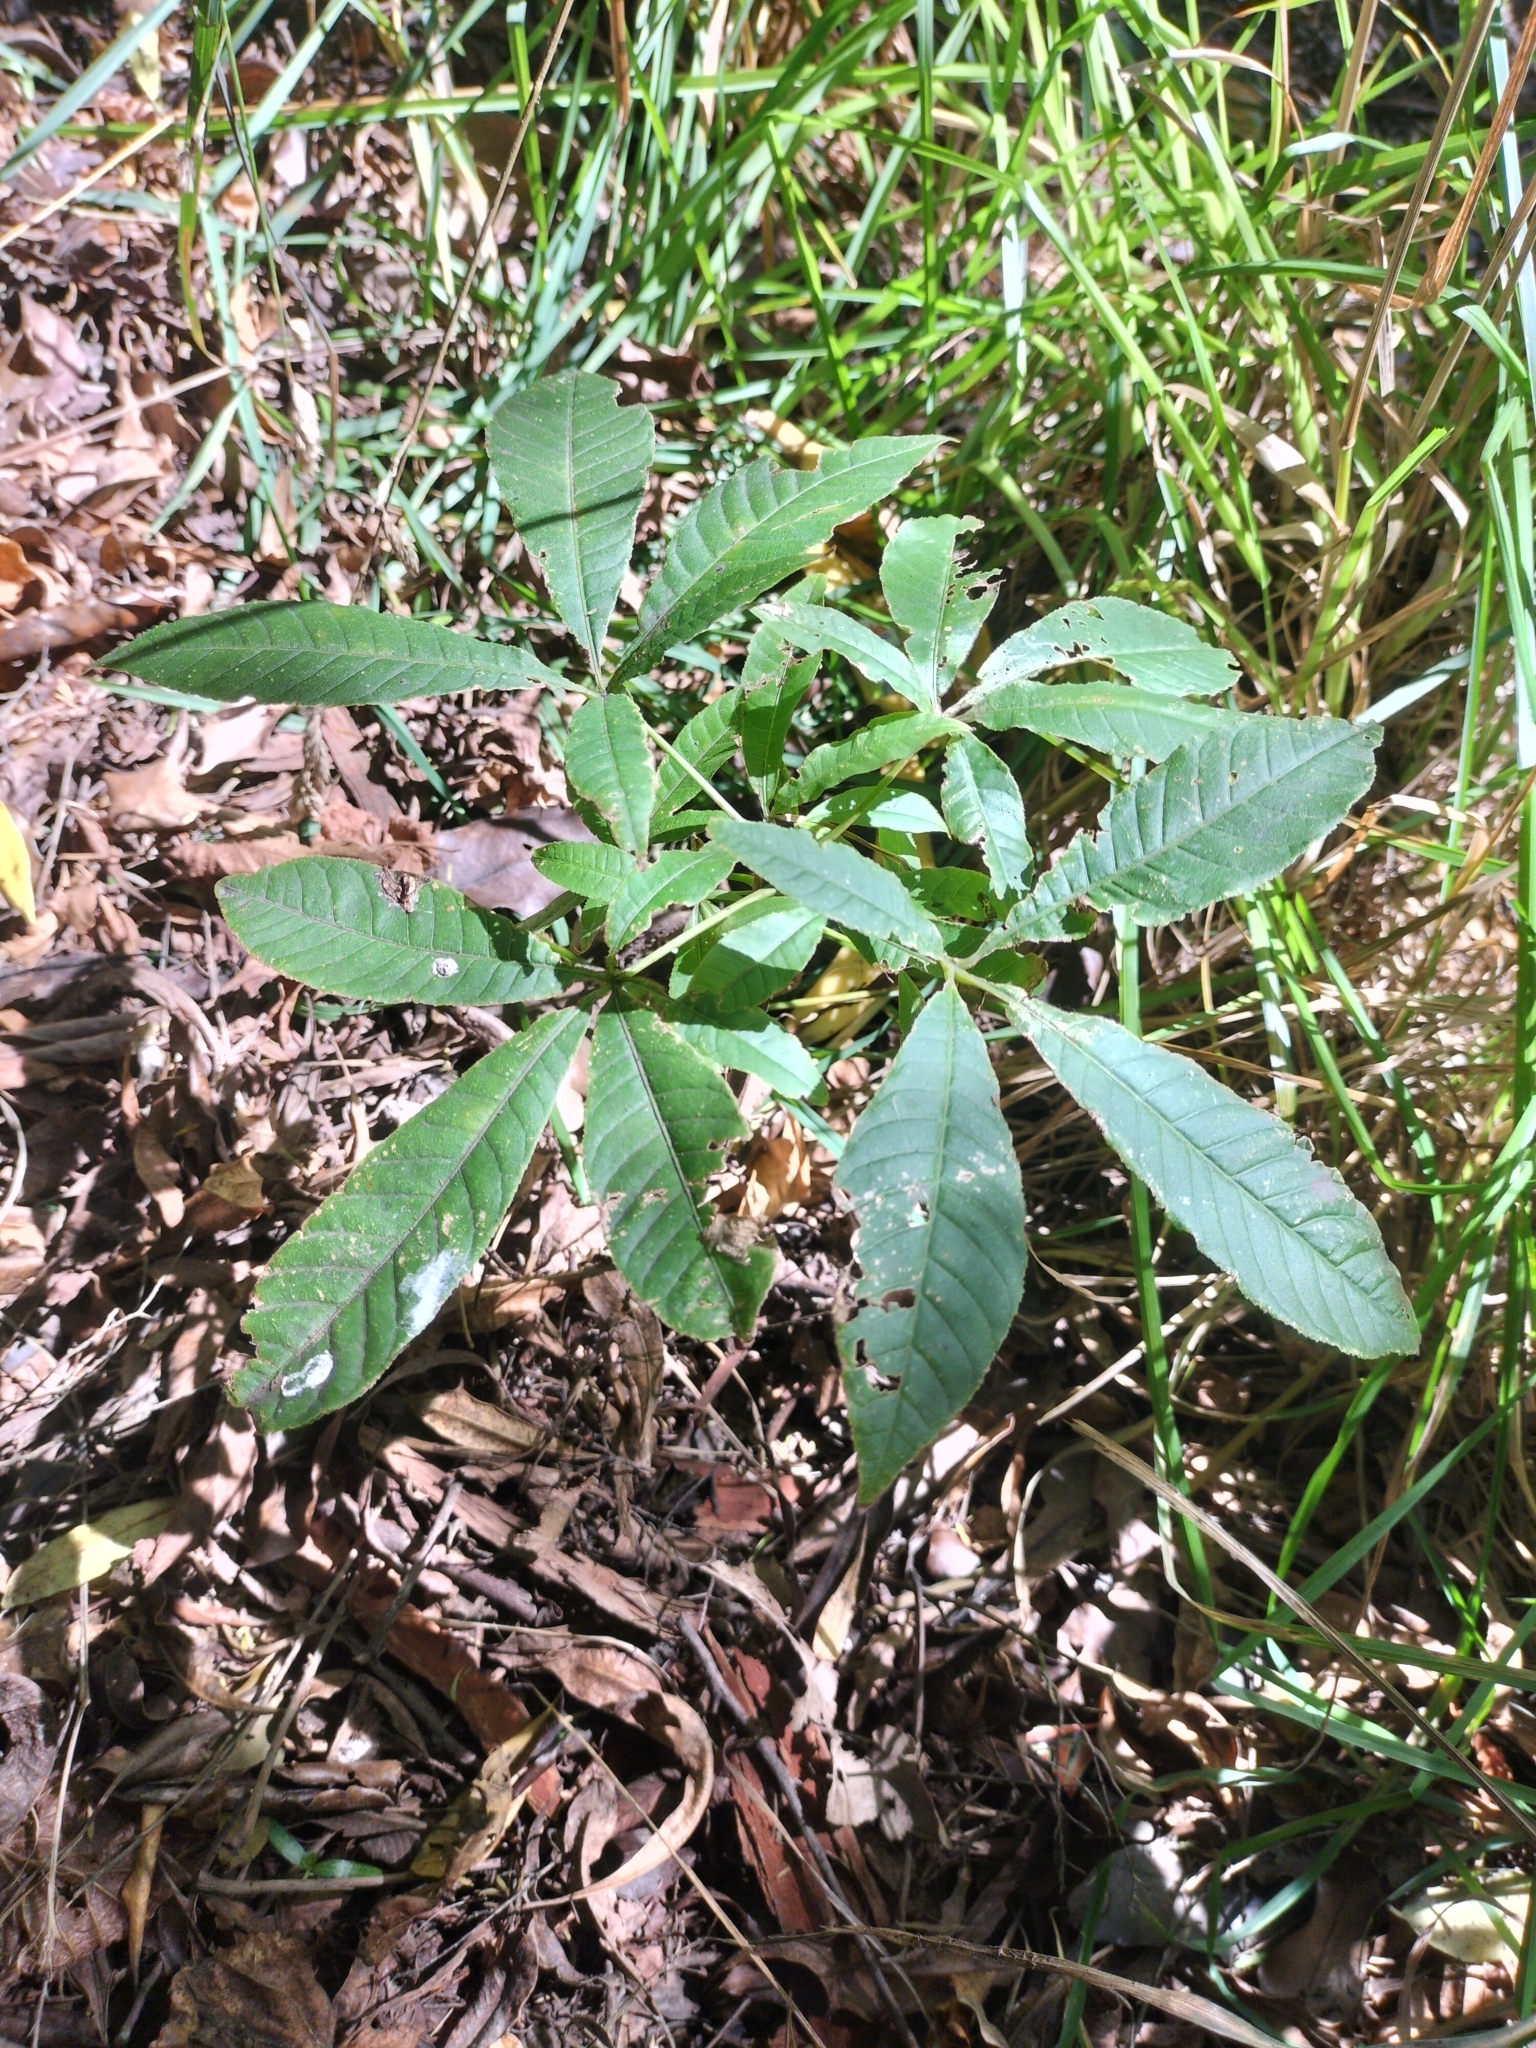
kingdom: Plantae
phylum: Tracheophyta
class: Magnoliopsida
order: Sapindales
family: Sapindaceae
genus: Aesculus
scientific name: Aesculus hippocastanum
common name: Horse-chestnut
